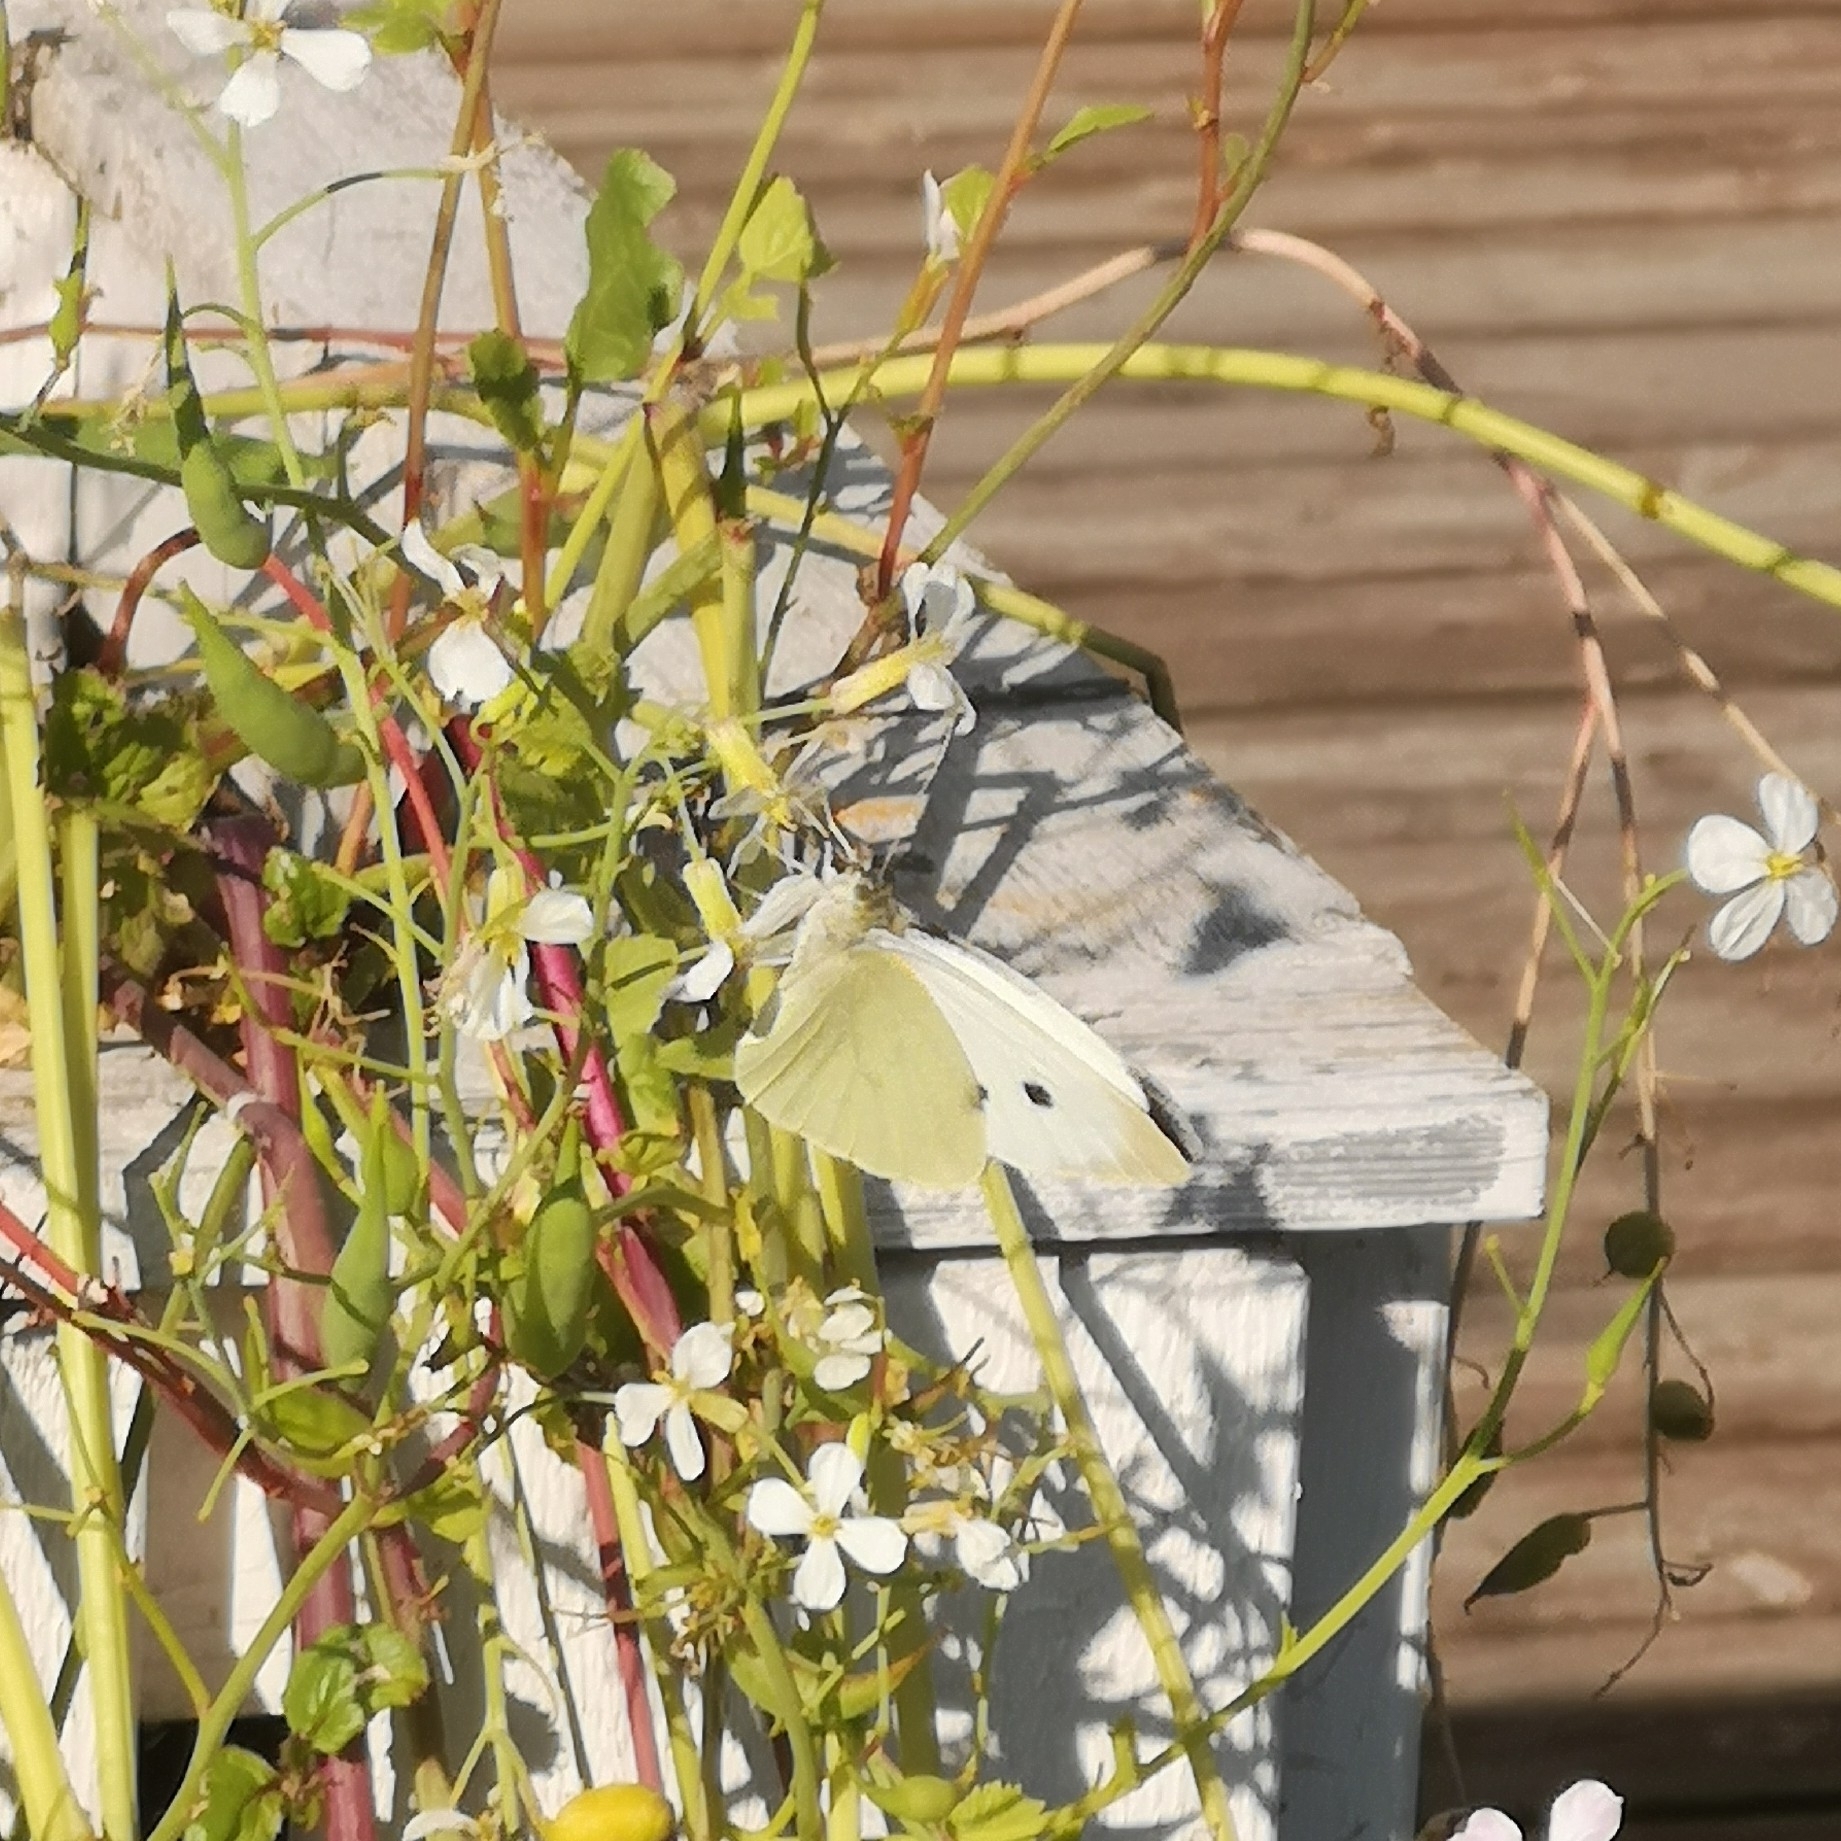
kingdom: Animalia
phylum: Arthropoda
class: Insecta
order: Lepidoptera
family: Pieridae
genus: Pieris
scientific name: Pieris brassicae
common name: Large white
